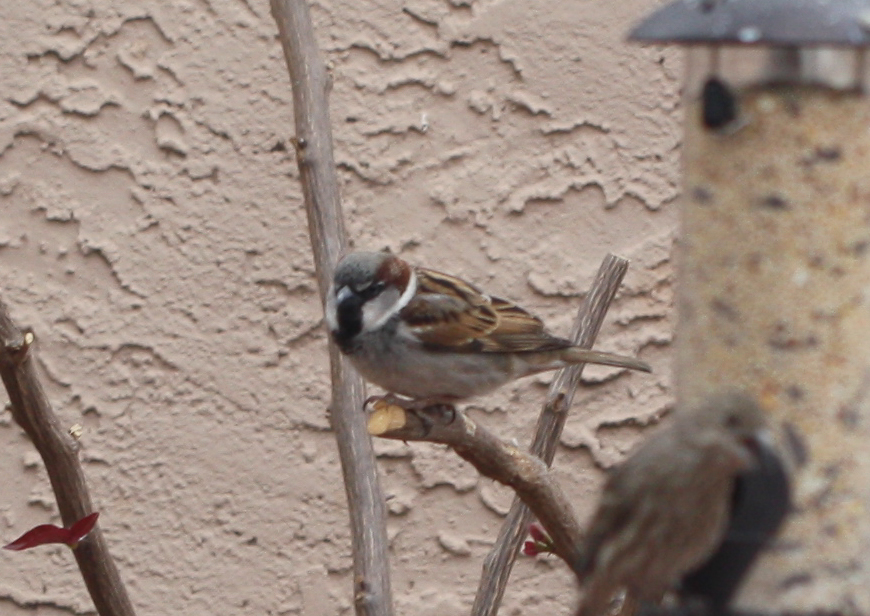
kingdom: Animalia
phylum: Chordata
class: Aves
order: Passeriformes
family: Passeridae
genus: Passer
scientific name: Passer domesticus
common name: House sparrow
